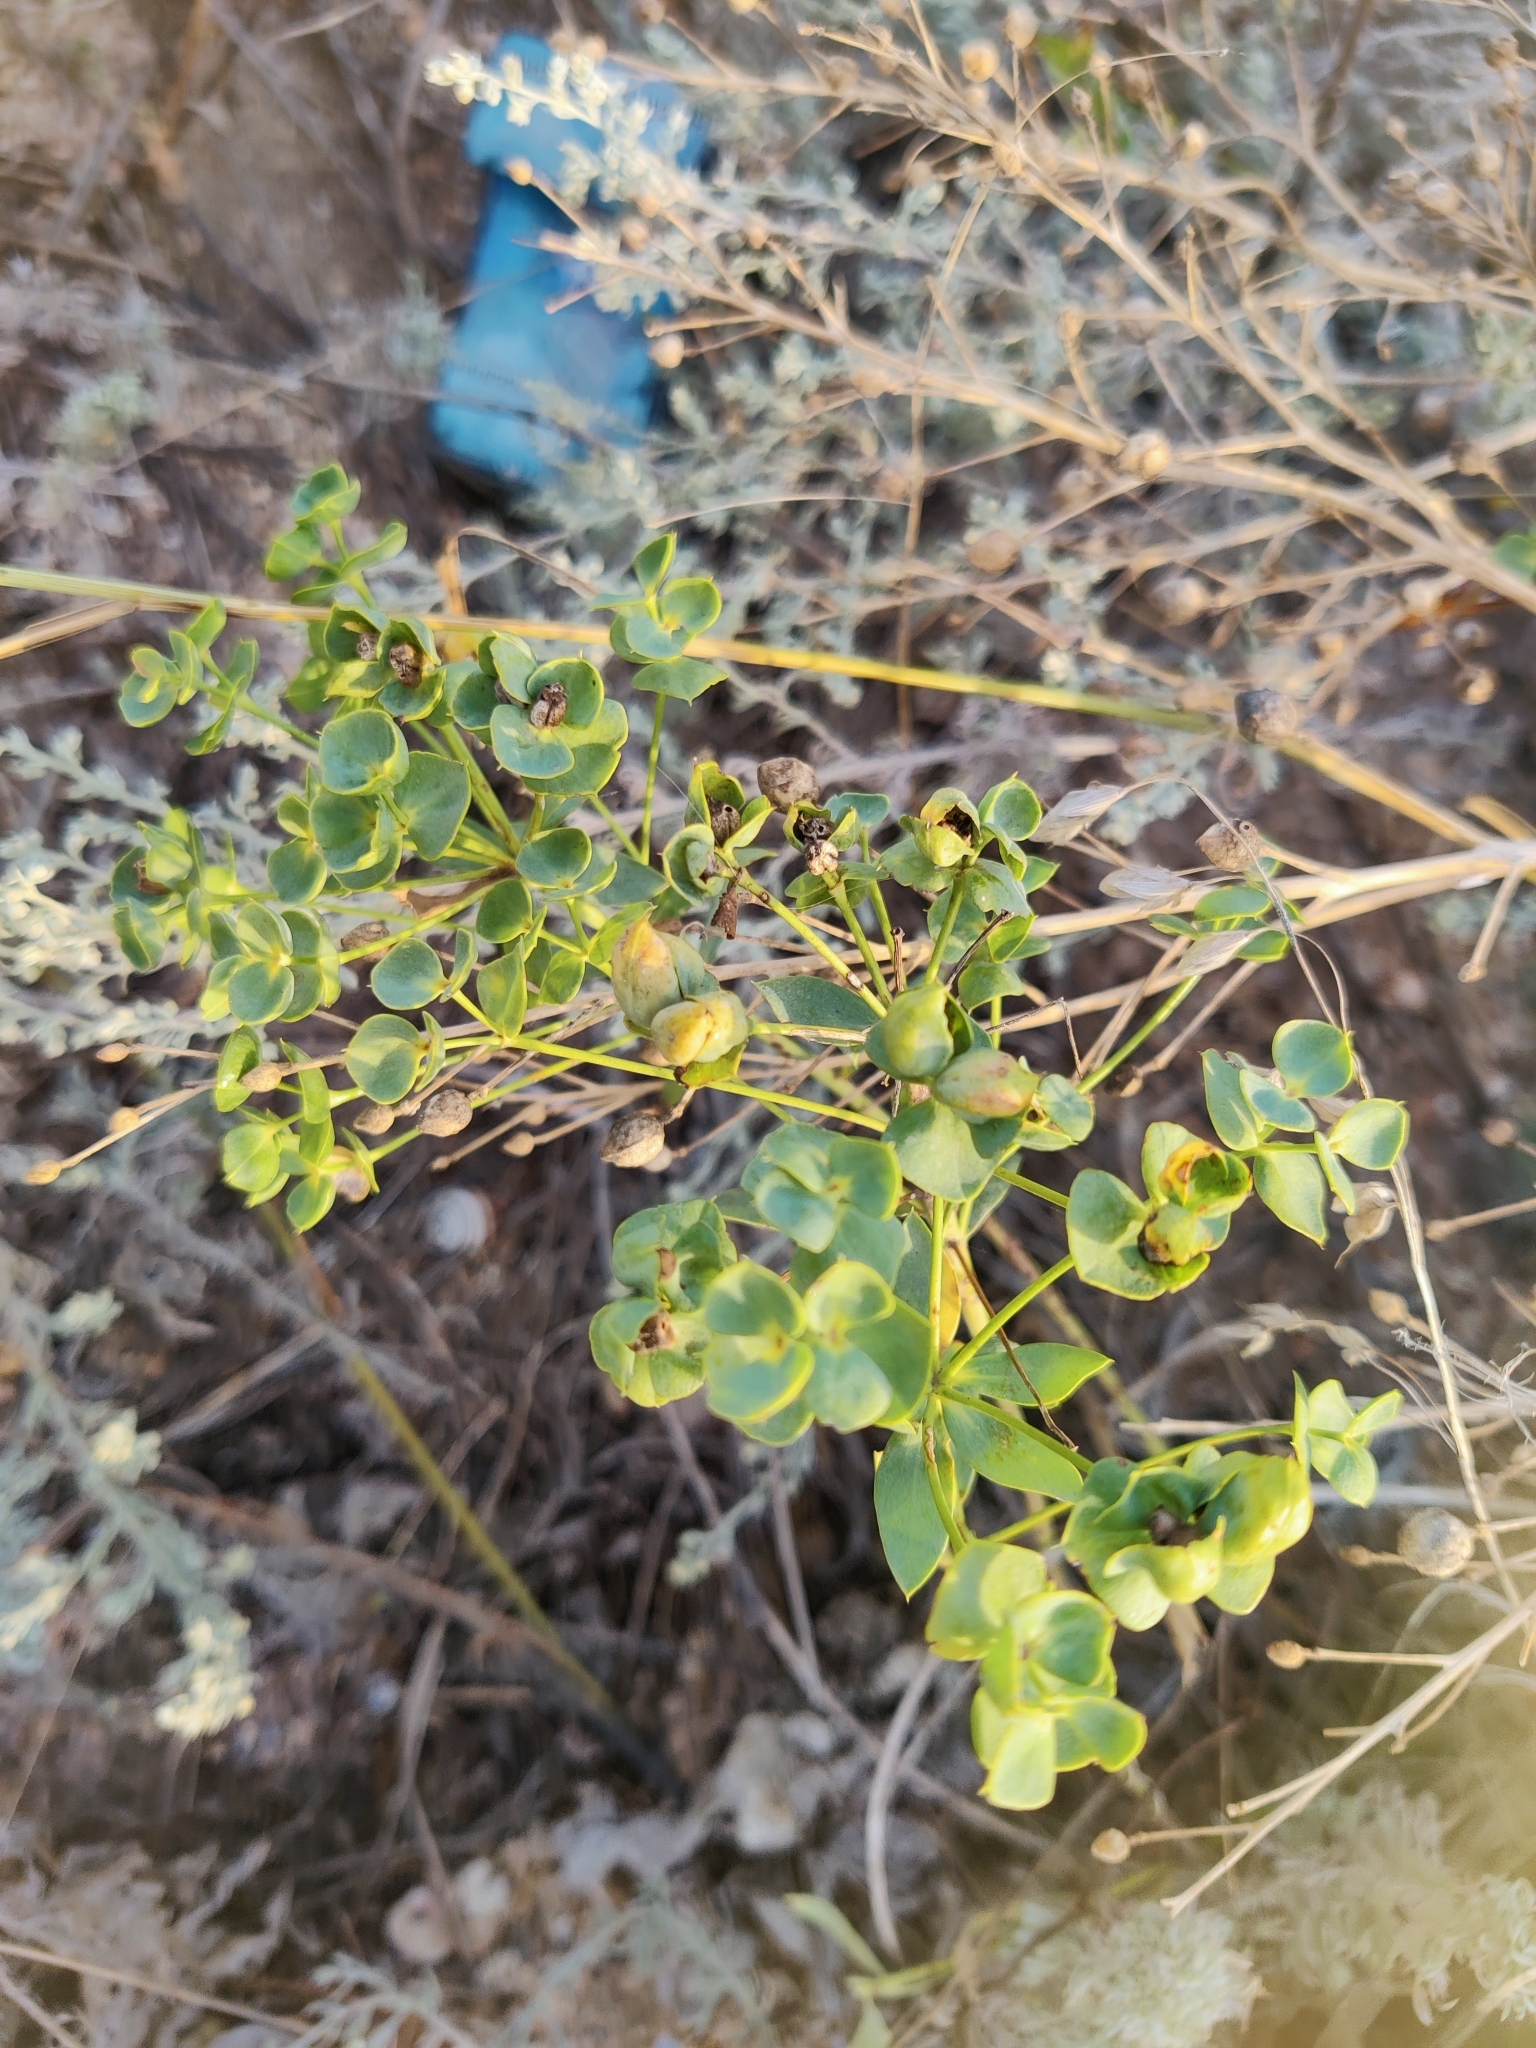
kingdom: Plantae
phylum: Tracheophyta
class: Magnoliopsida
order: Malpighiales
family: Euphorbiaceae
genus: Euphorbia
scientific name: Euphorbia seguieriana
